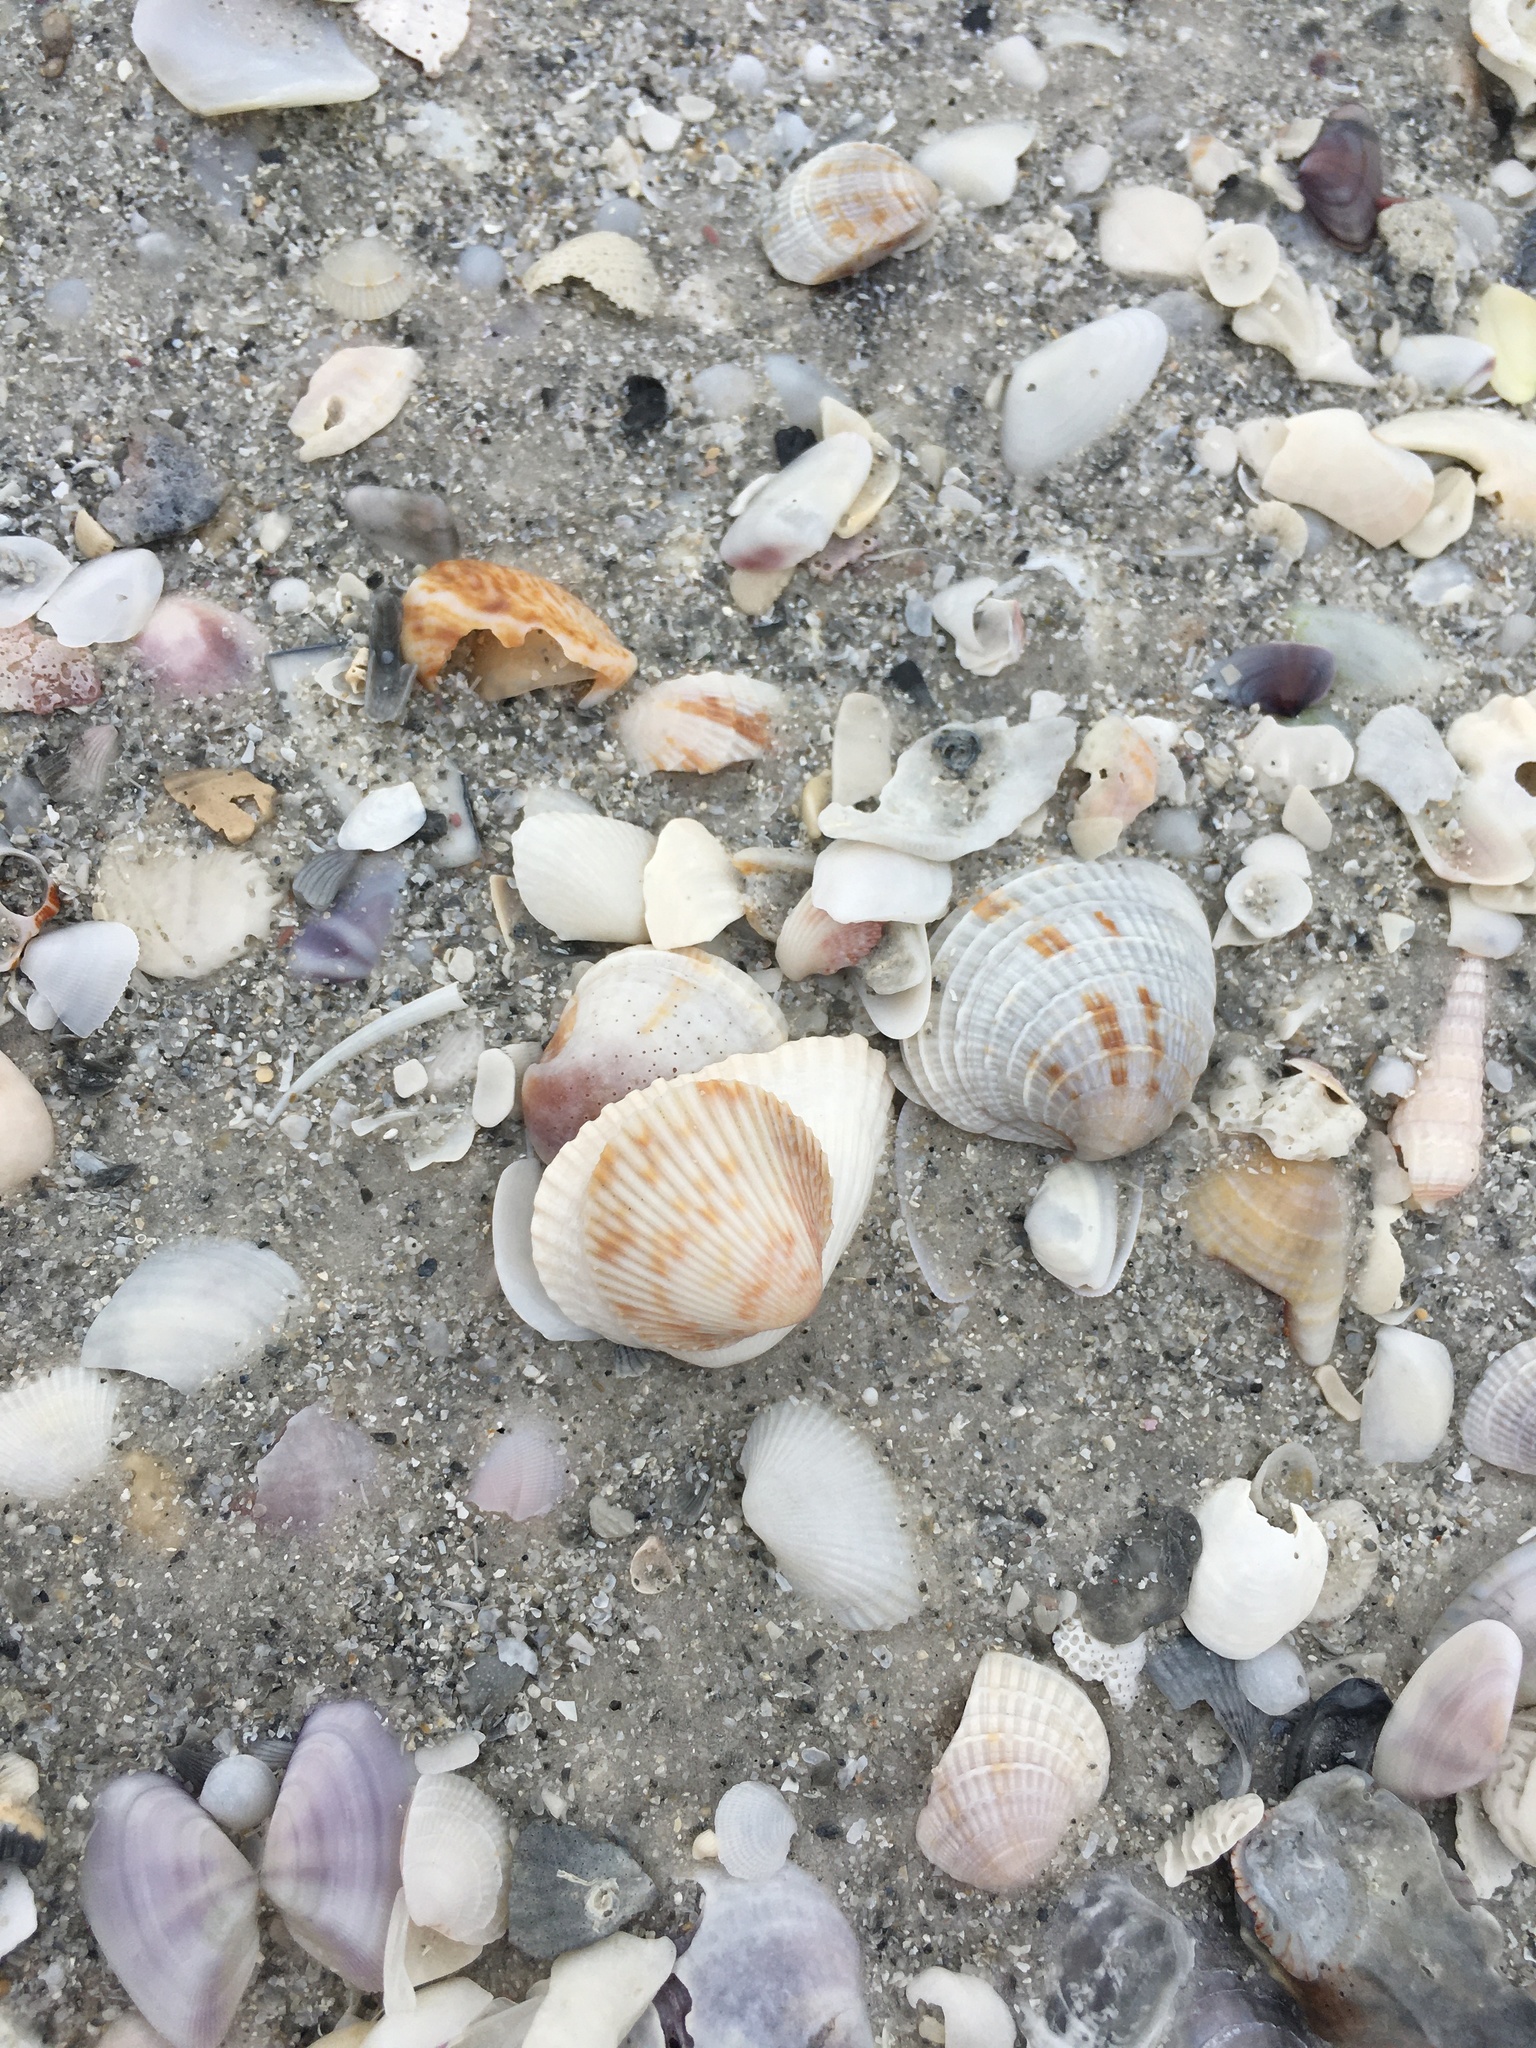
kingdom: Animalia
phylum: Mollusca
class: Bivalvia
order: Cardiida
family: Cardiidae
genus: Trachycardium
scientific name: Trachycardium egmontianum
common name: Florida pricklycockle
